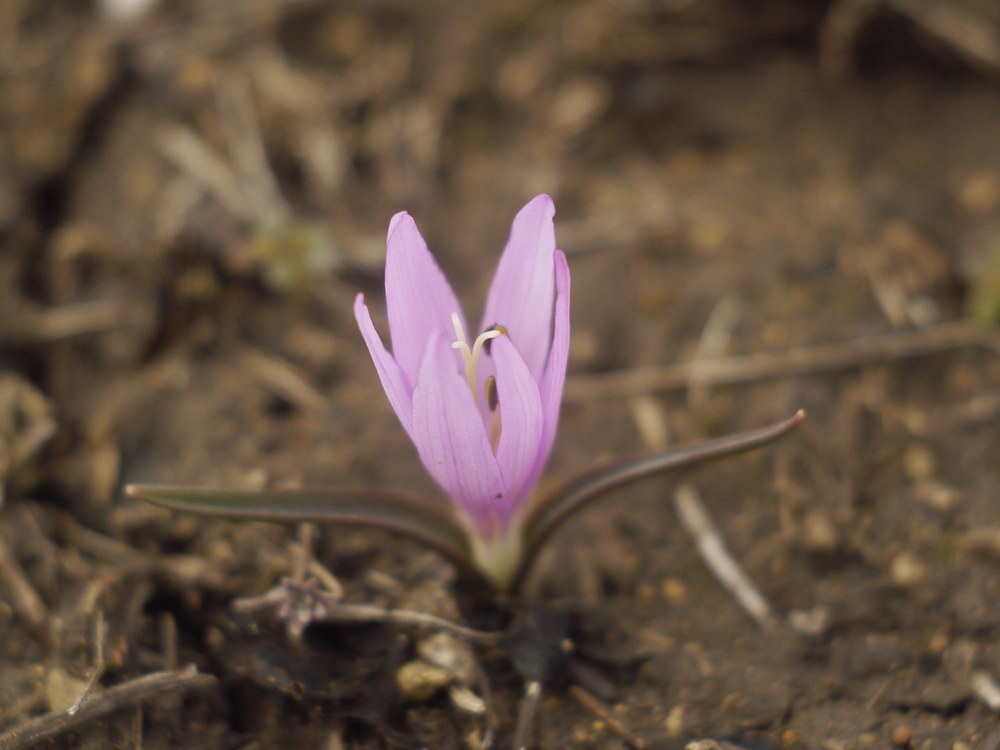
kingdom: Plantae
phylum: Tracheophyta
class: Liliopsida
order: Liliales
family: Colchicaceae
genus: Colchicum
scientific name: Colchicum bulbocodium
